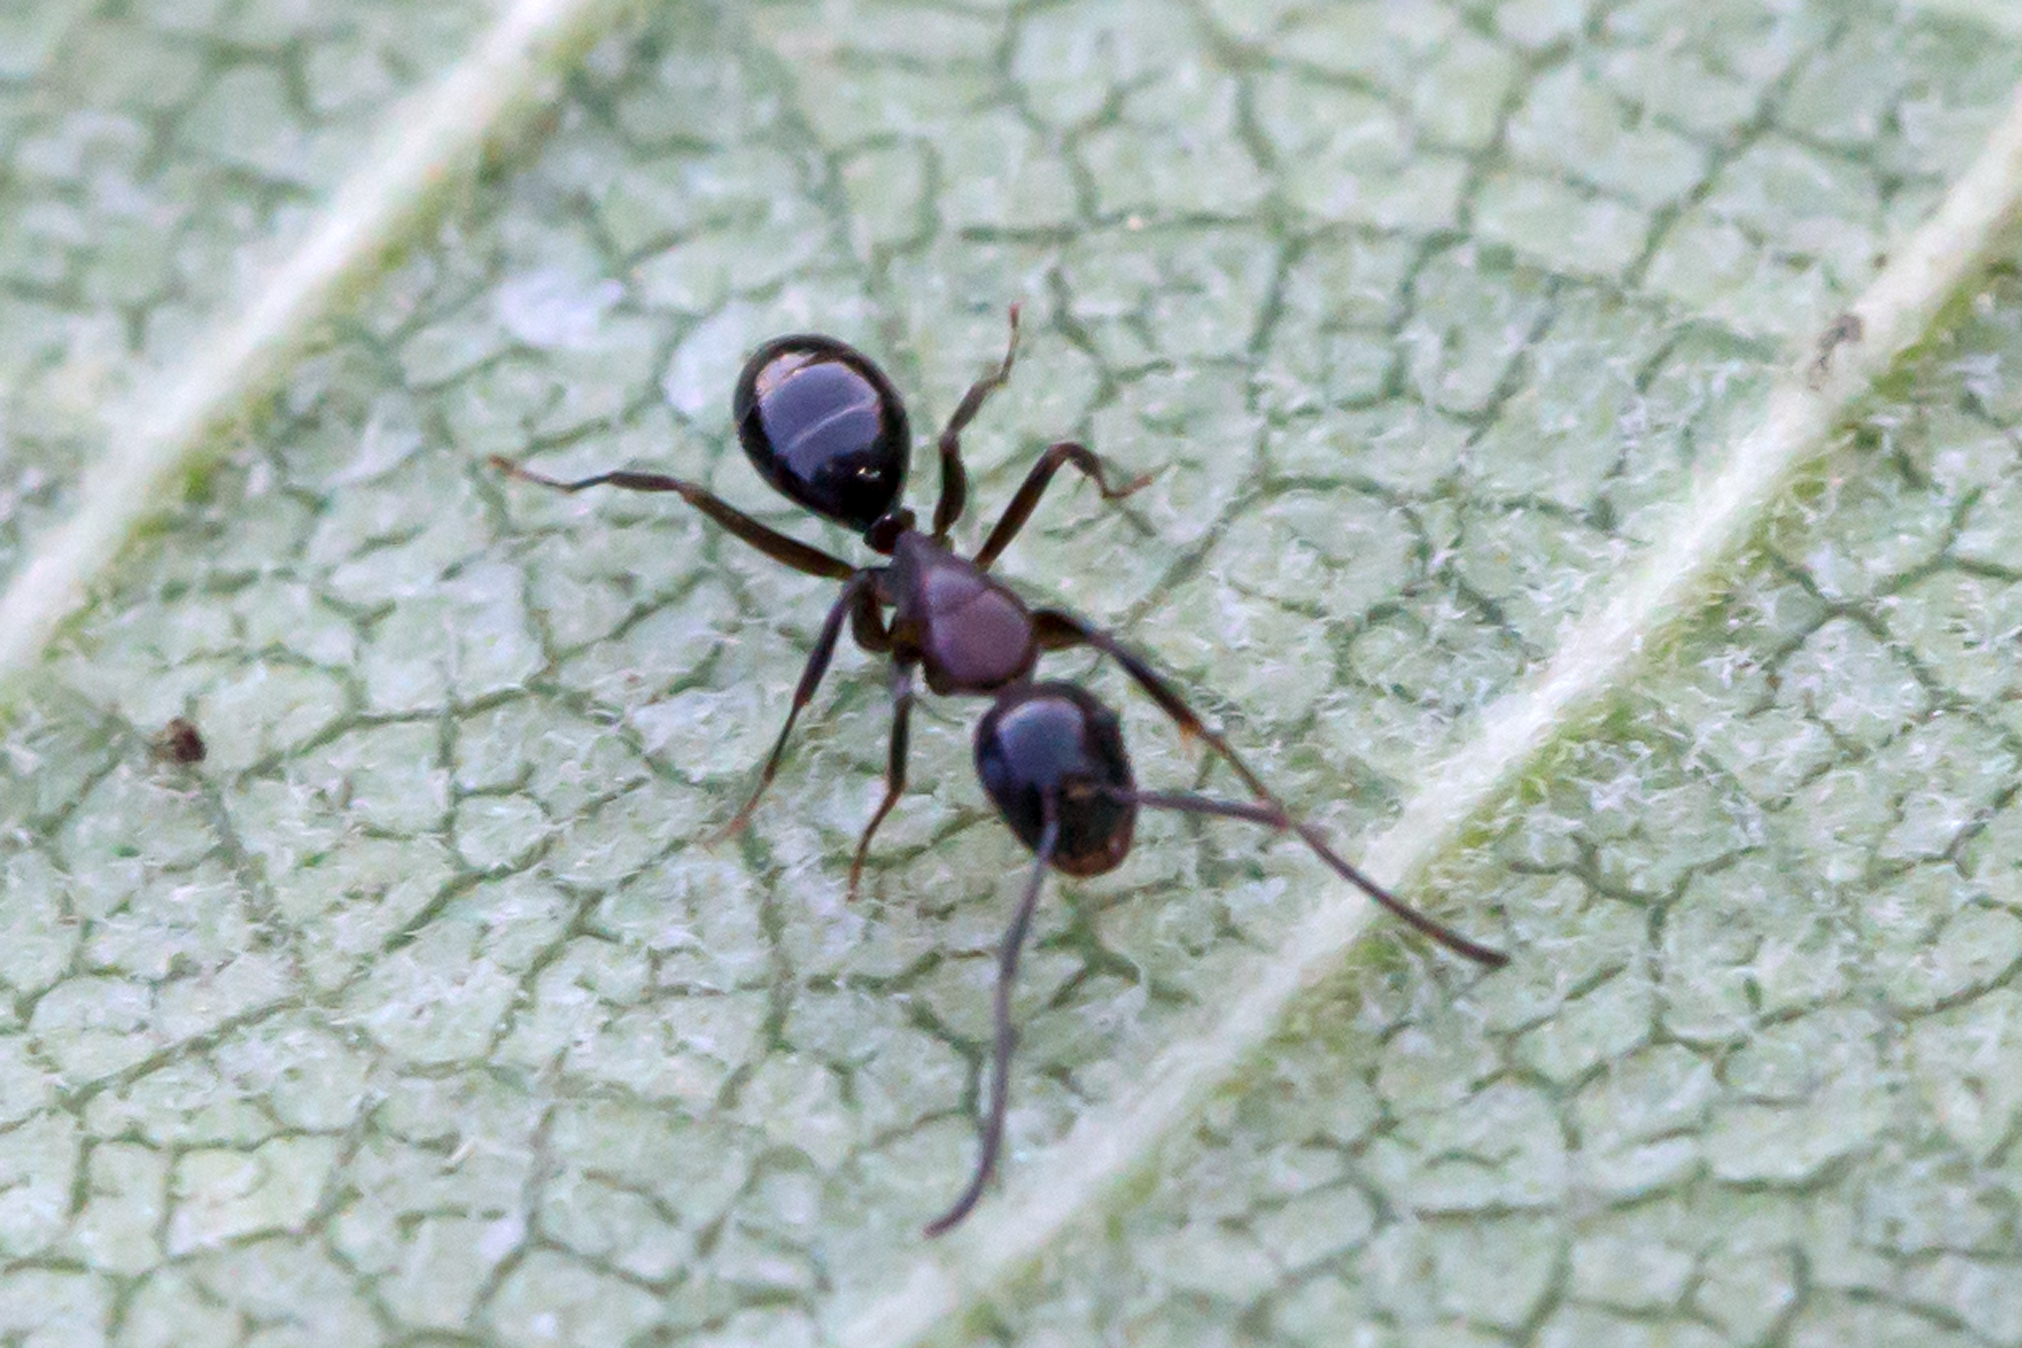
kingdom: Animalia
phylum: Arthropoda
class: Insecta
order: Hymenoptera
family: Formicidae
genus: Camponotus
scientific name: Camponotus nearcticus
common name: Smaller carpenter ant
